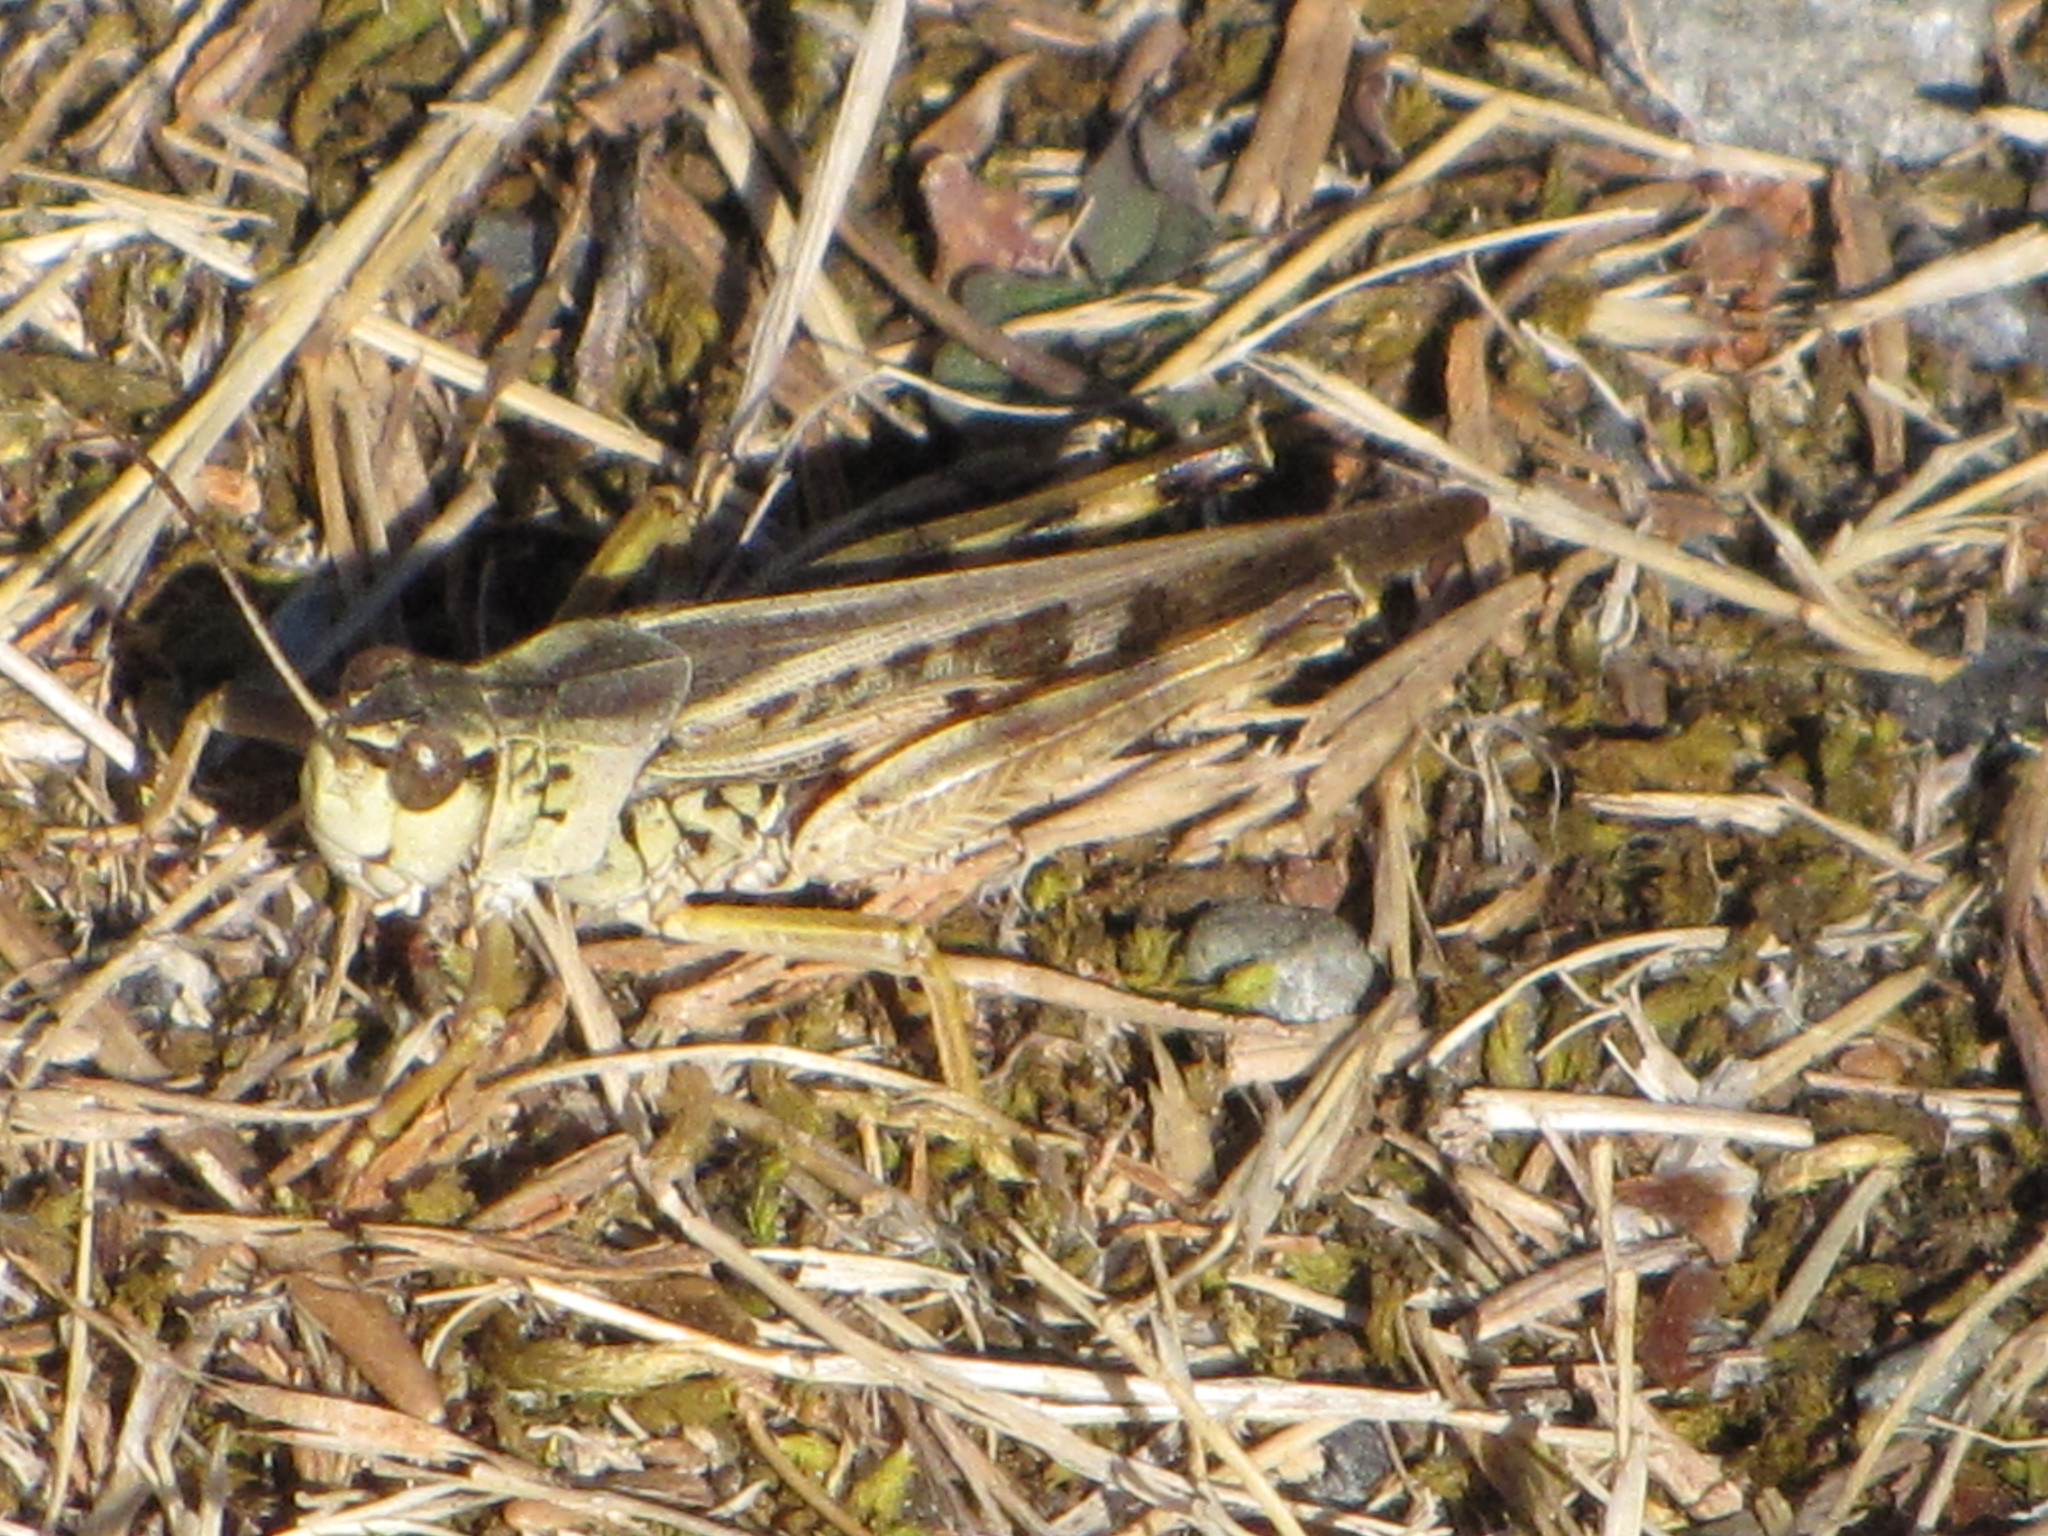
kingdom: Animalia
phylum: Arthropoda
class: Insecta
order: Orthoptera
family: Acrididae
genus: Camnula
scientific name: Camnula pellucida
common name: Clear-winged grasshopper
